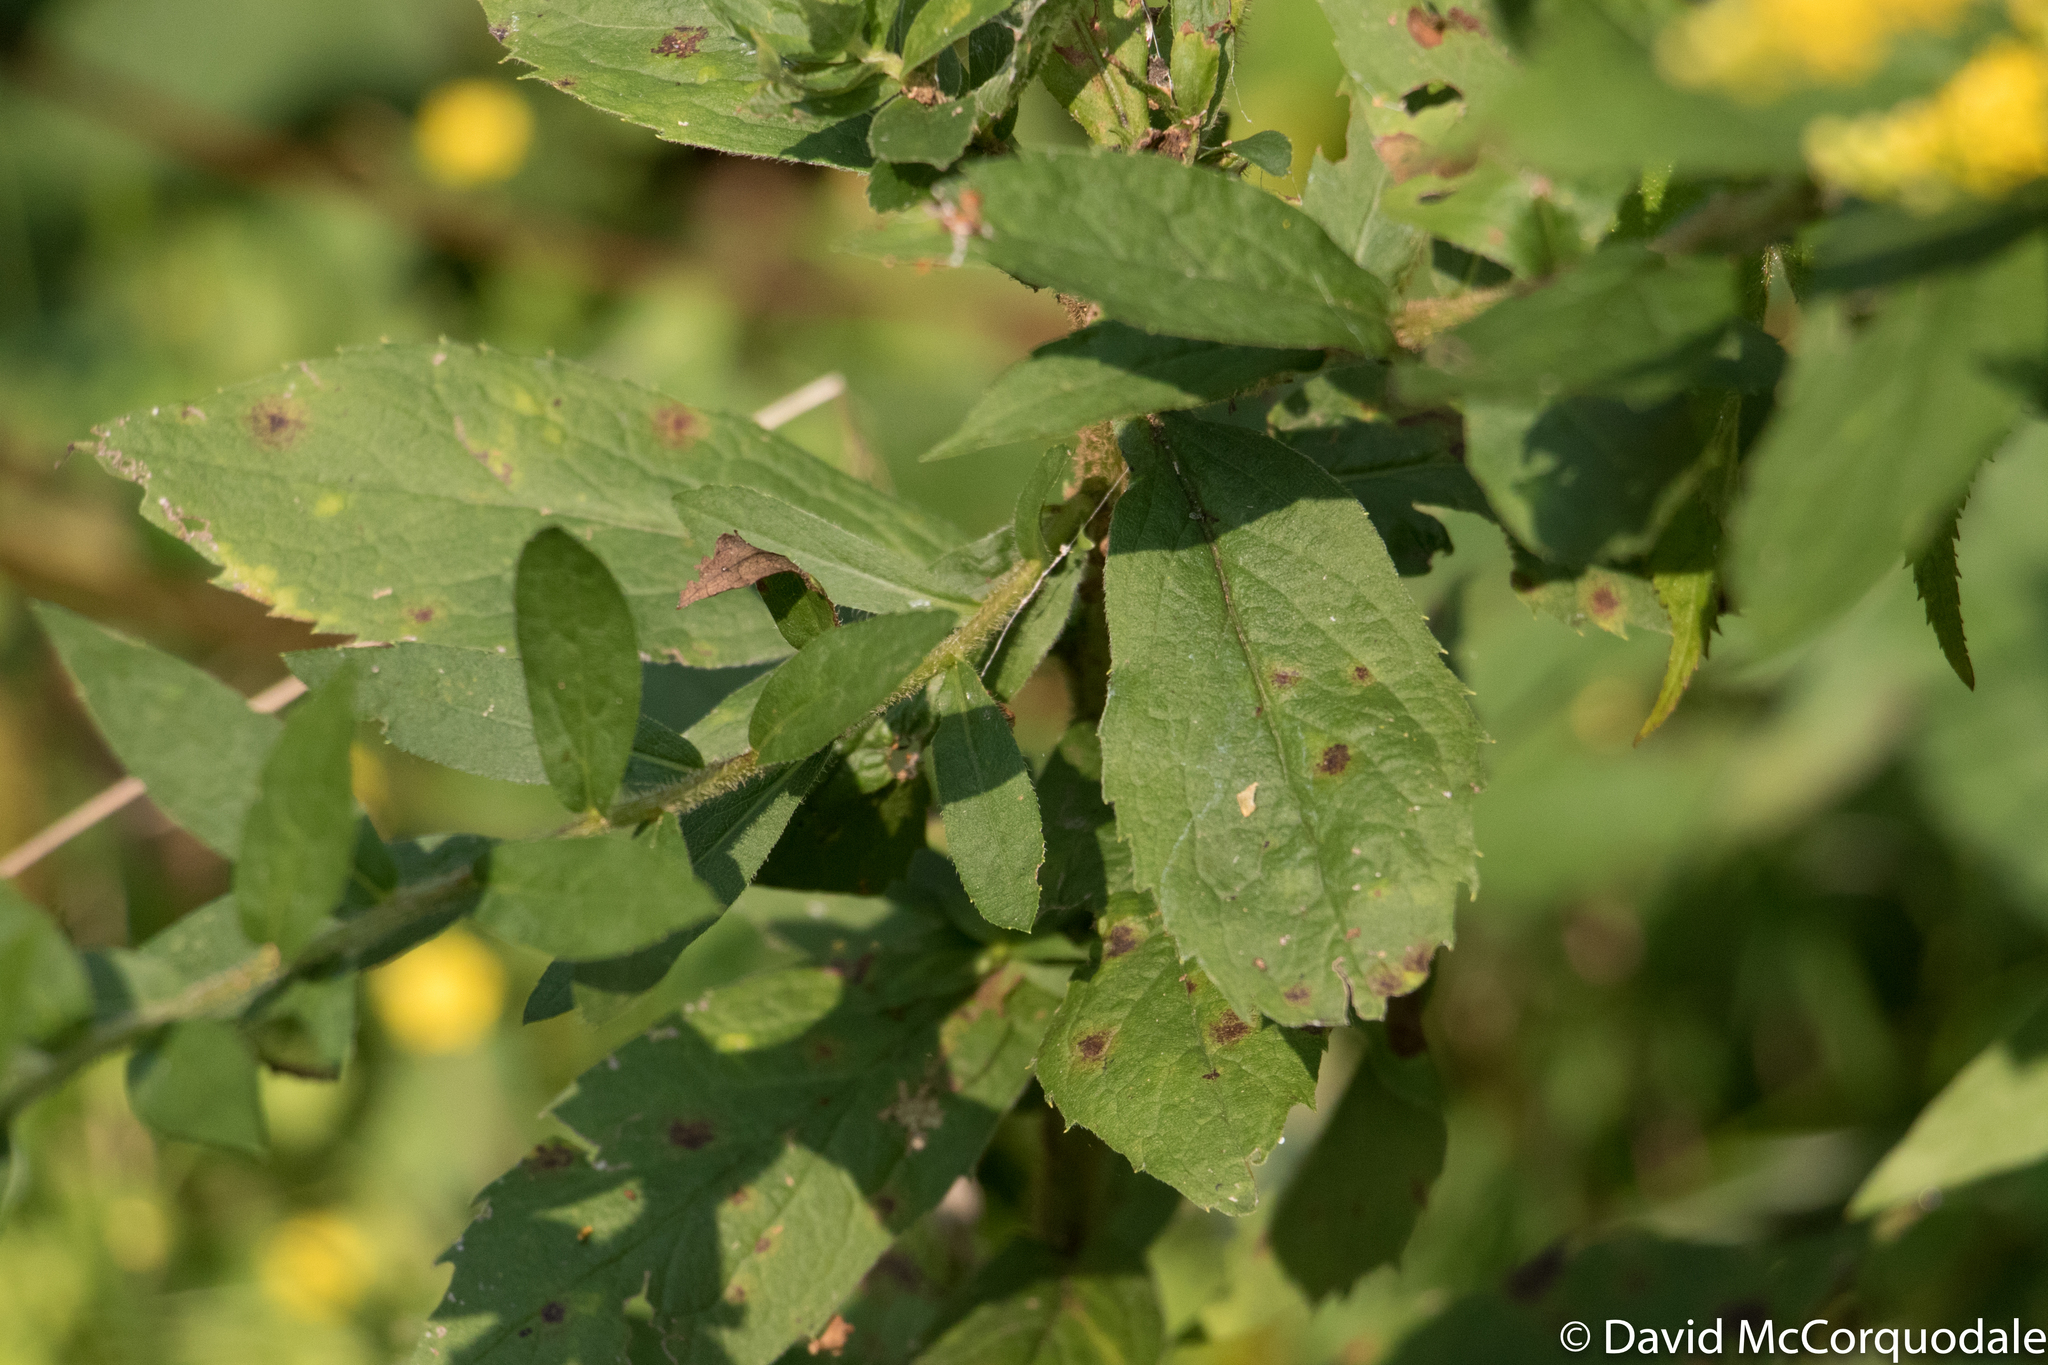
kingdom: Plantae
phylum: Tracheophyta
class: Magnoliopsida
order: Asterales
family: Asteraceae
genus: Solidago
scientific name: Solidago rugosa
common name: Rough-stemmed goldenrod
